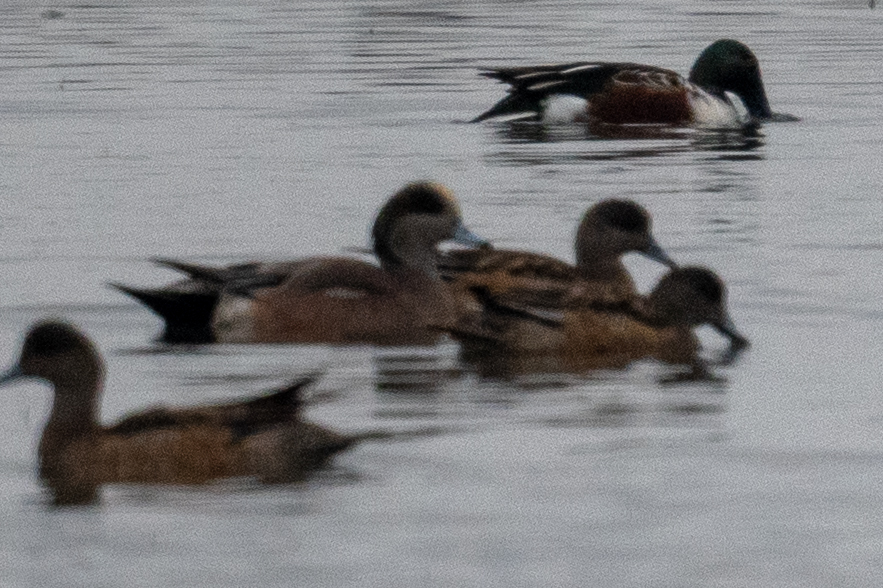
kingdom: Animalia
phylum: Chordata
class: Aves
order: Anseriformes
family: Anatidae
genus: Mareca
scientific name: Mareca americana
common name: American wigeon
